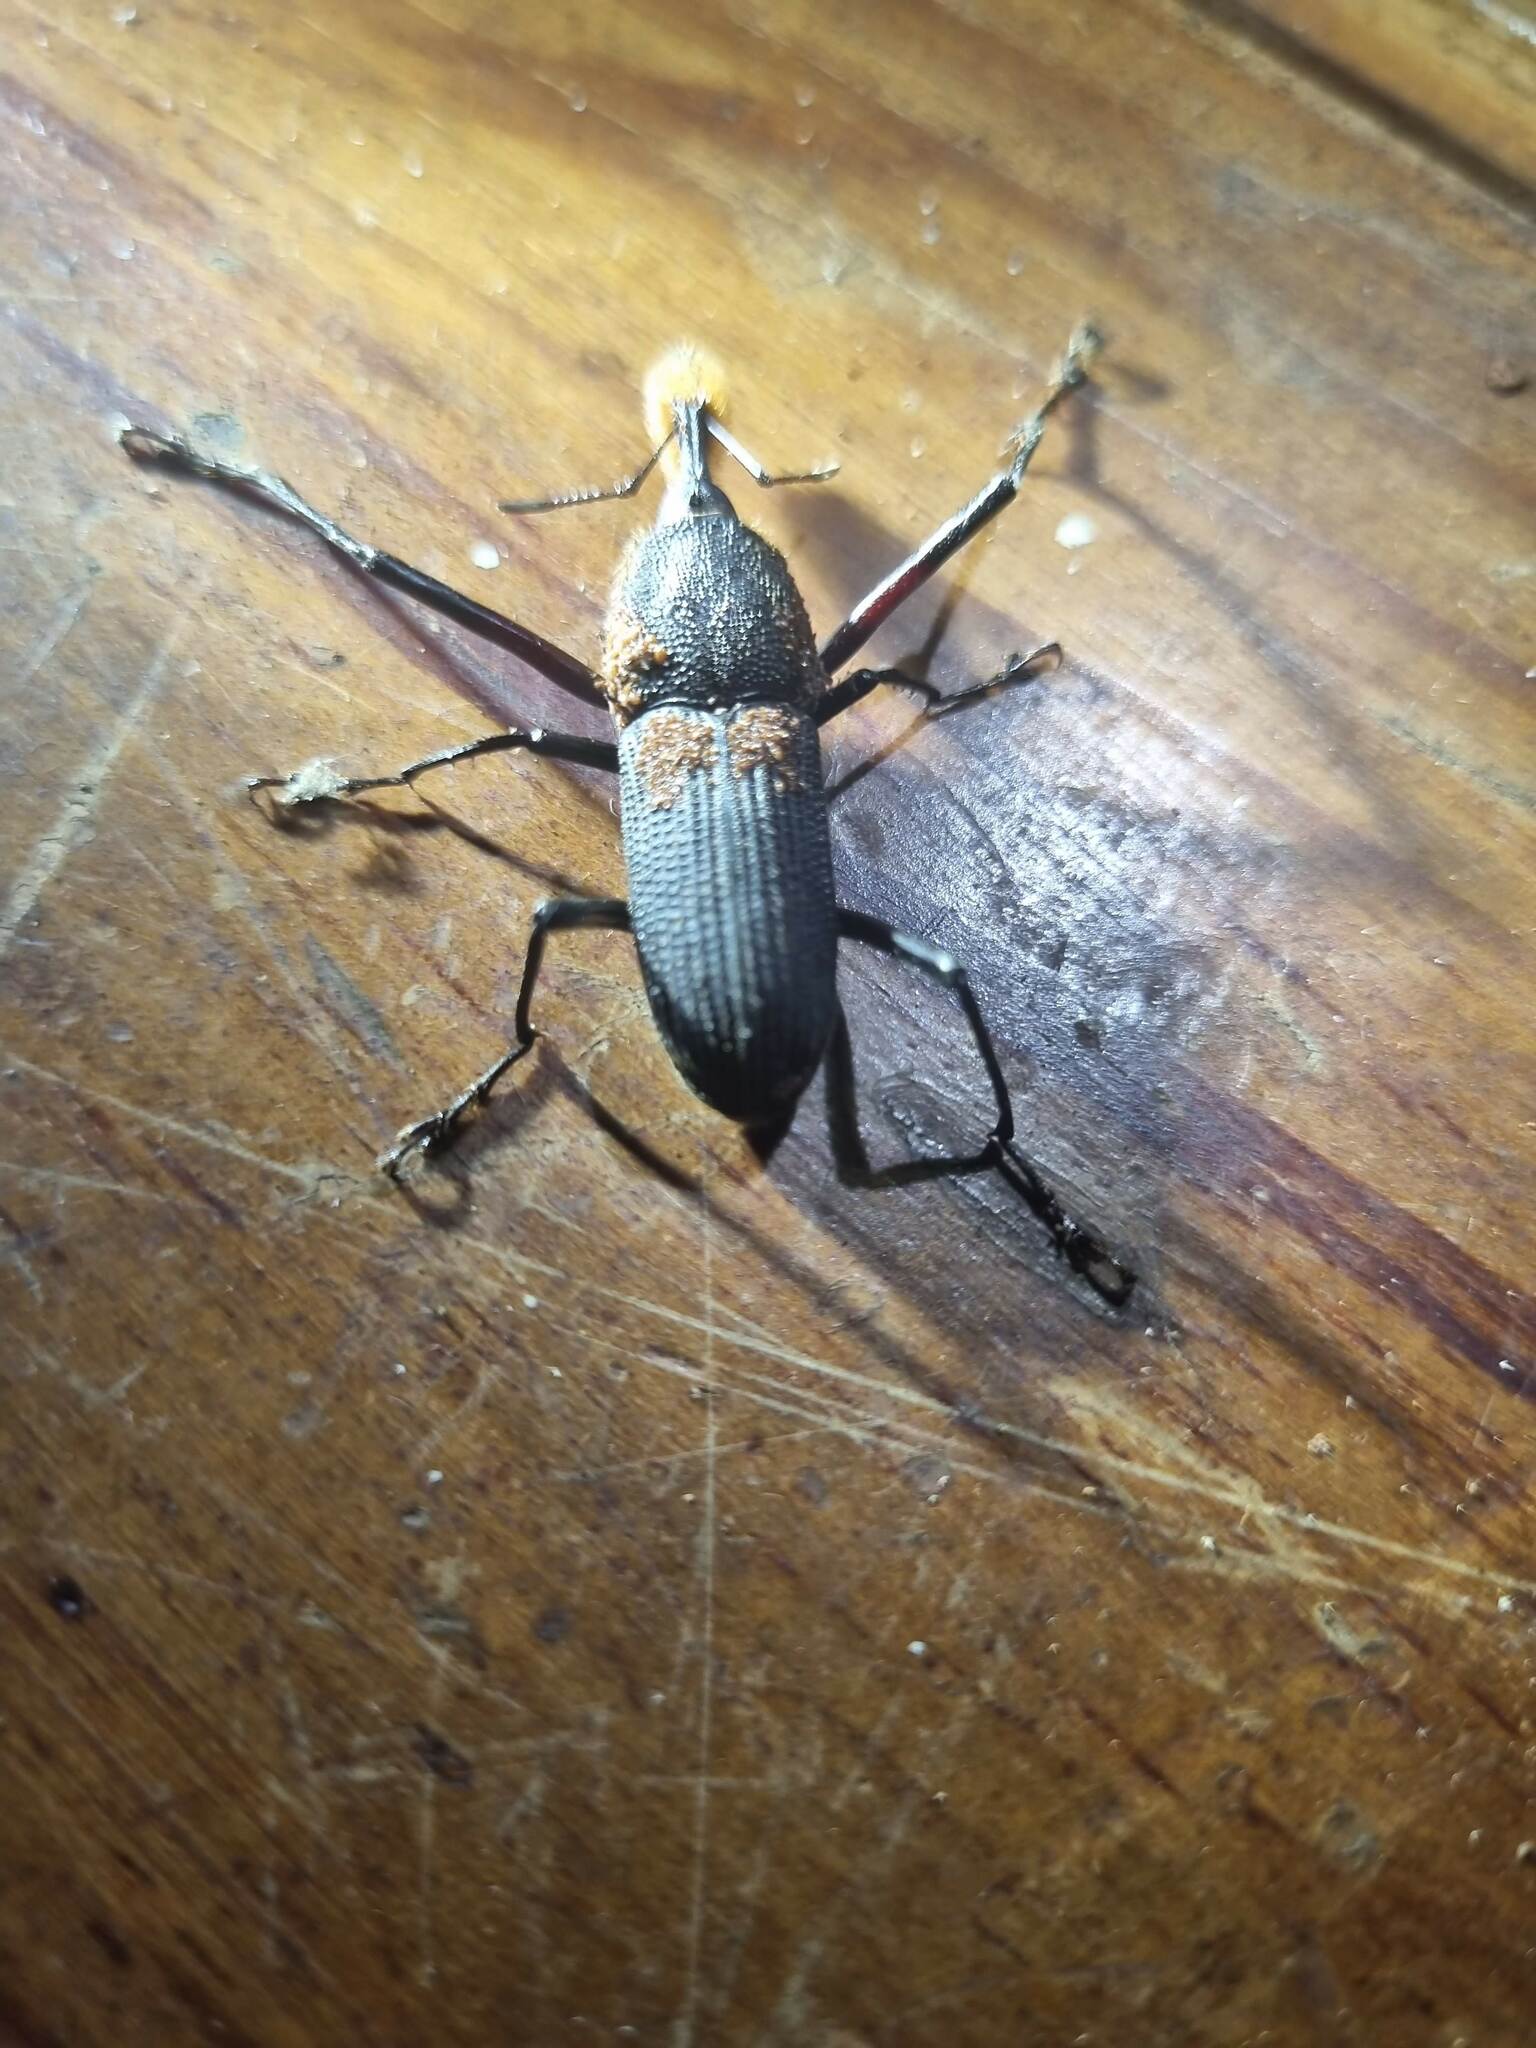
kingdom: Animalia
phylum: Arthropoda
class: Insecta
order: Coleoptera
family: Dryophthoridae
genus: Rhinostomus
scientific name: Rhinostomus barbirostris
